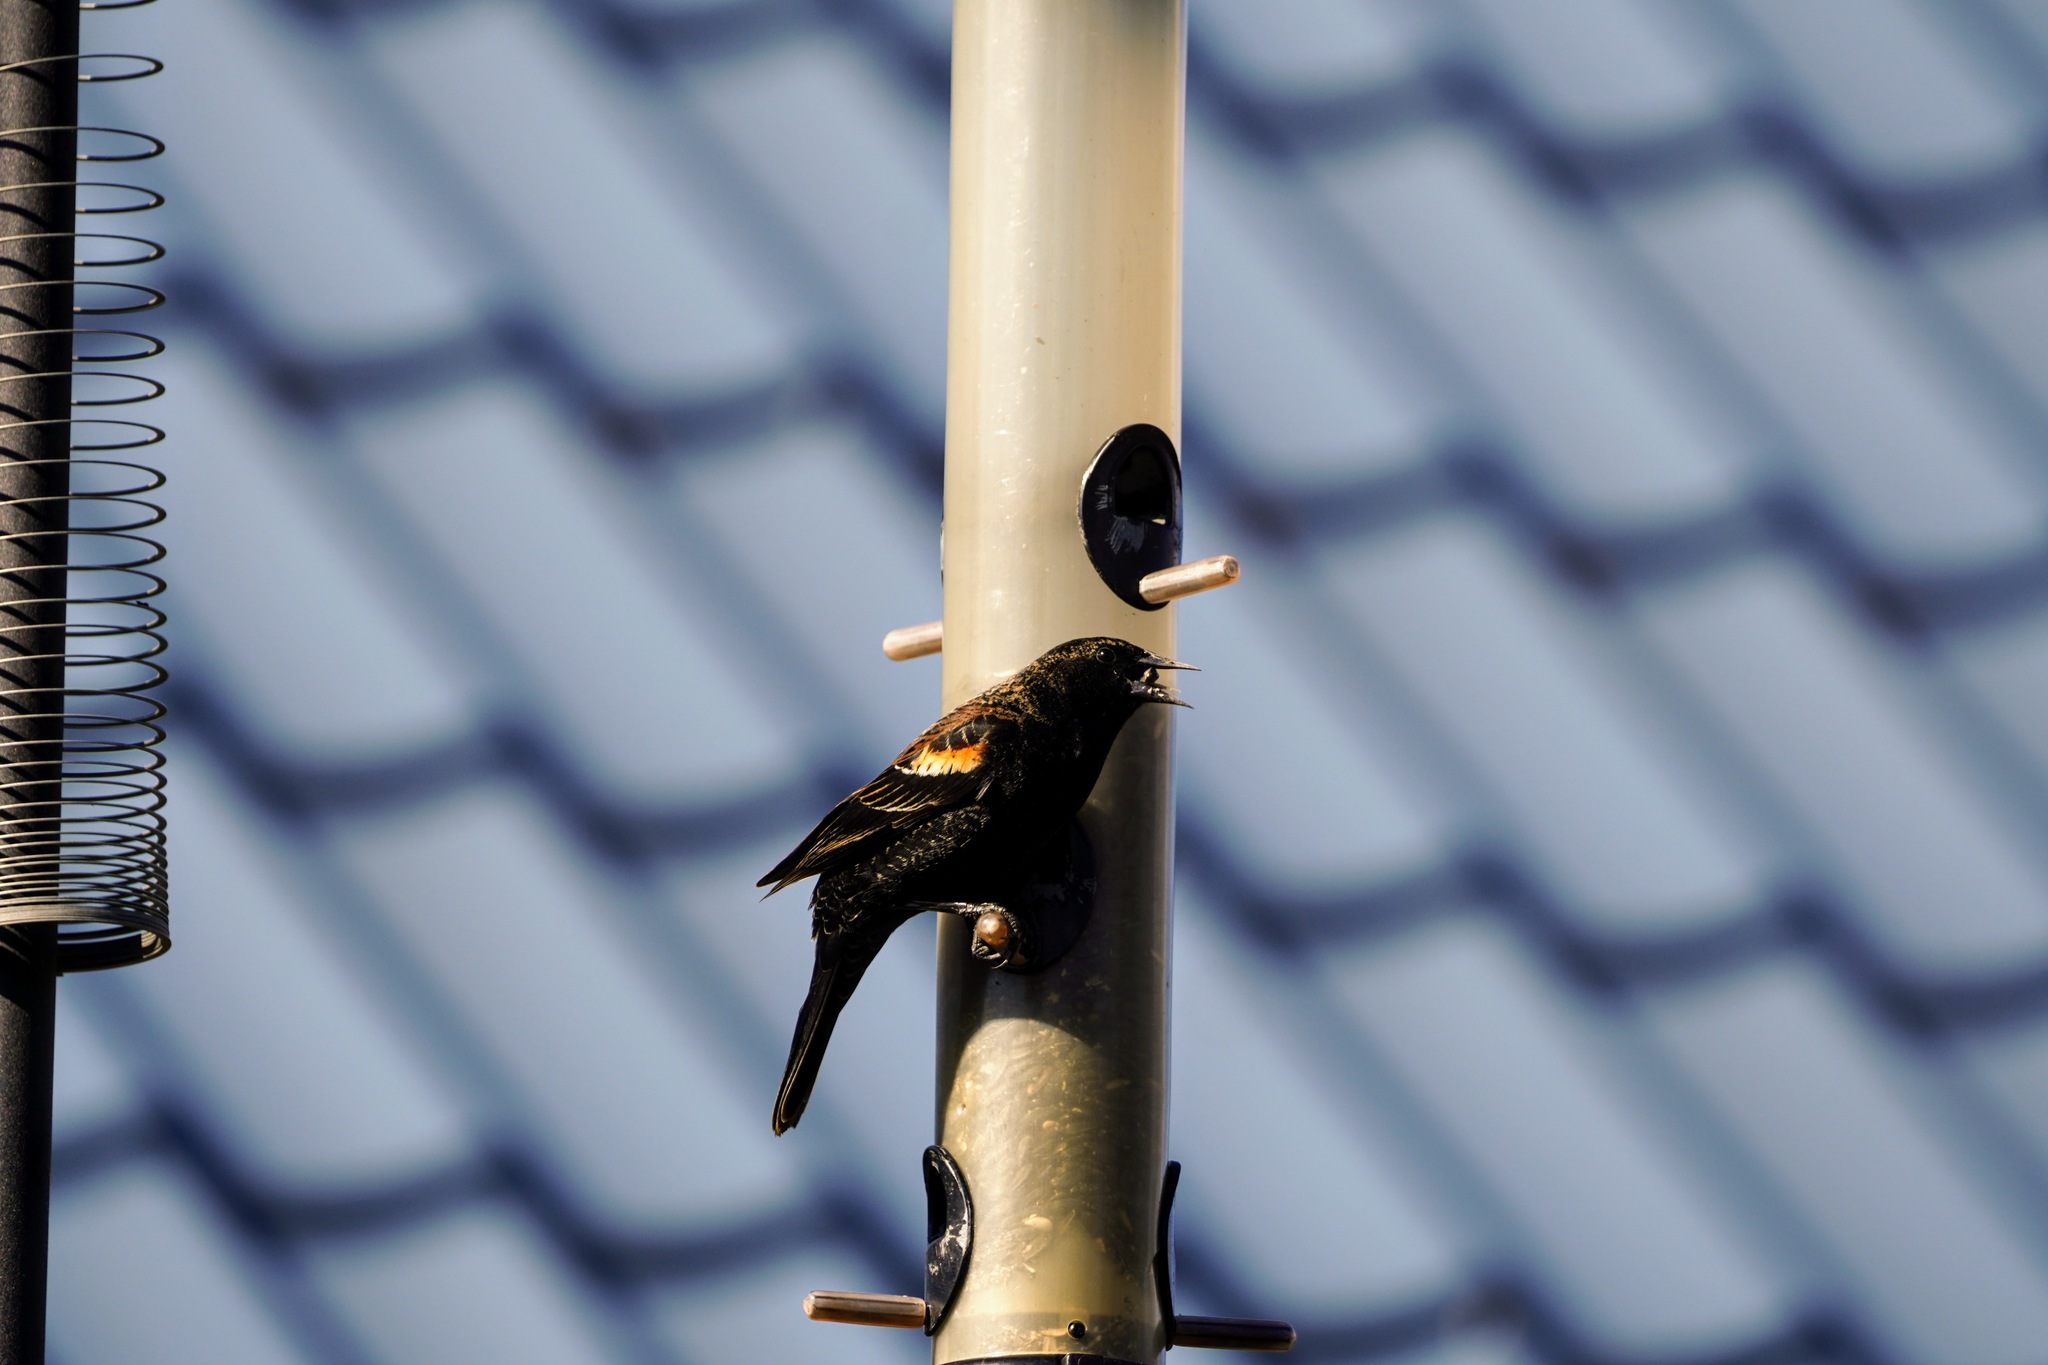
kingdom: Animalia
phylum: Chordata
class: Aves
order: Passeriformes
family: Icteridae
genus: Agelaius
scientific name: Agelaius phoeniceus
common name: Red-winged blackbird
